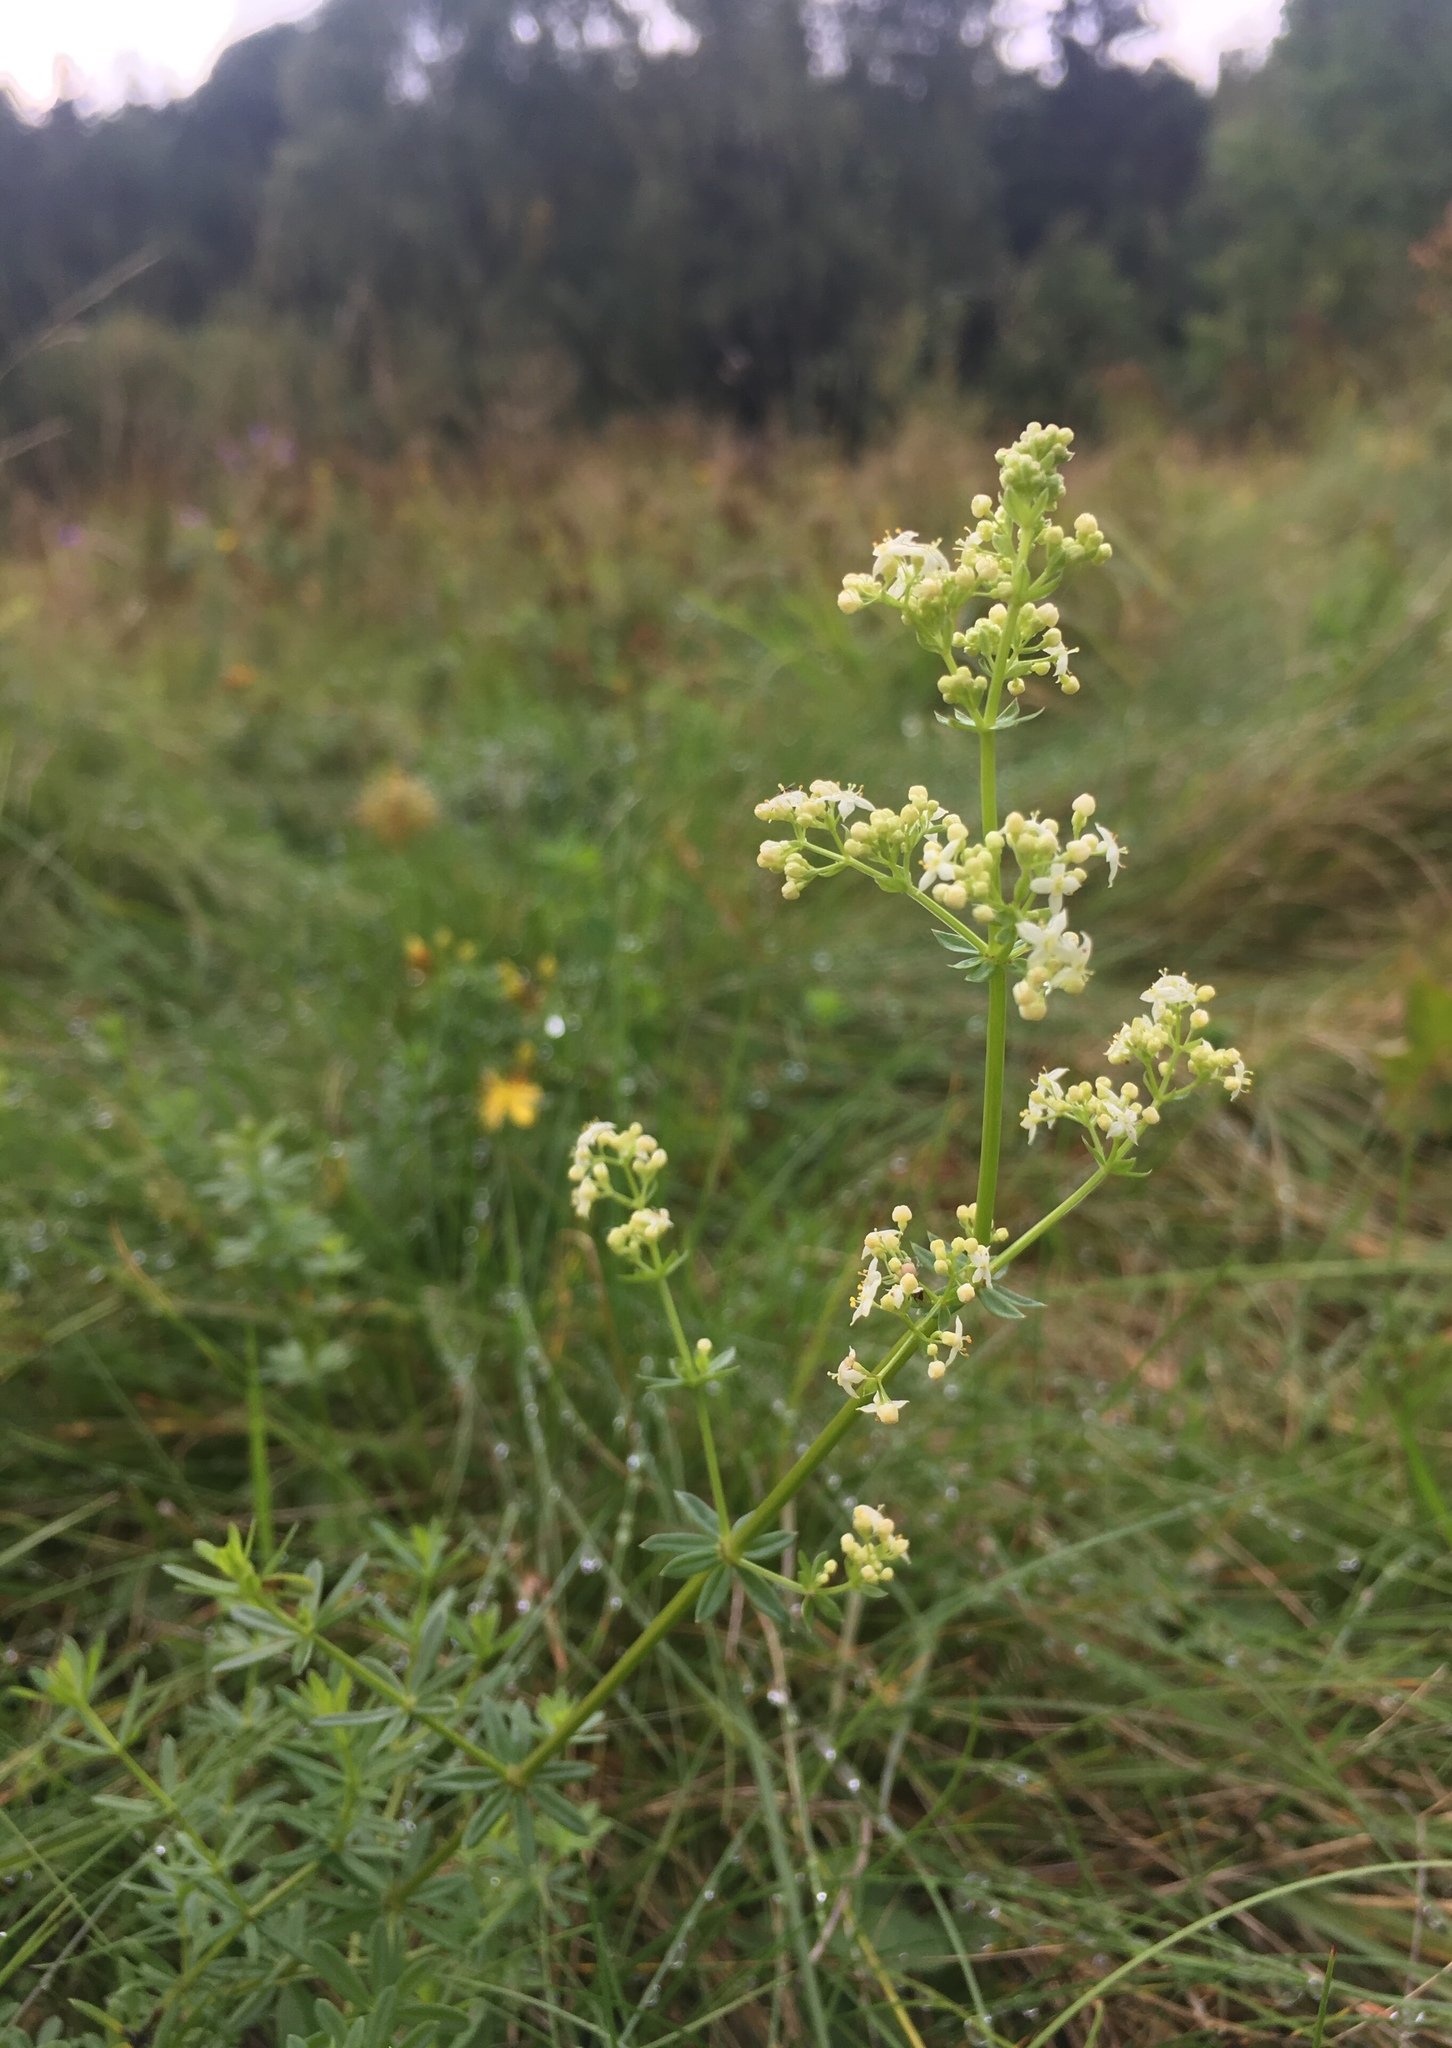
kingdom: Plantae
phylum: Tracheophyta
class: Magnoliopsida
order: Gentianales
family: Rubiaceae
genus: Galium
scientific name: Galium mollugo
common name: Hedge bedstraw
